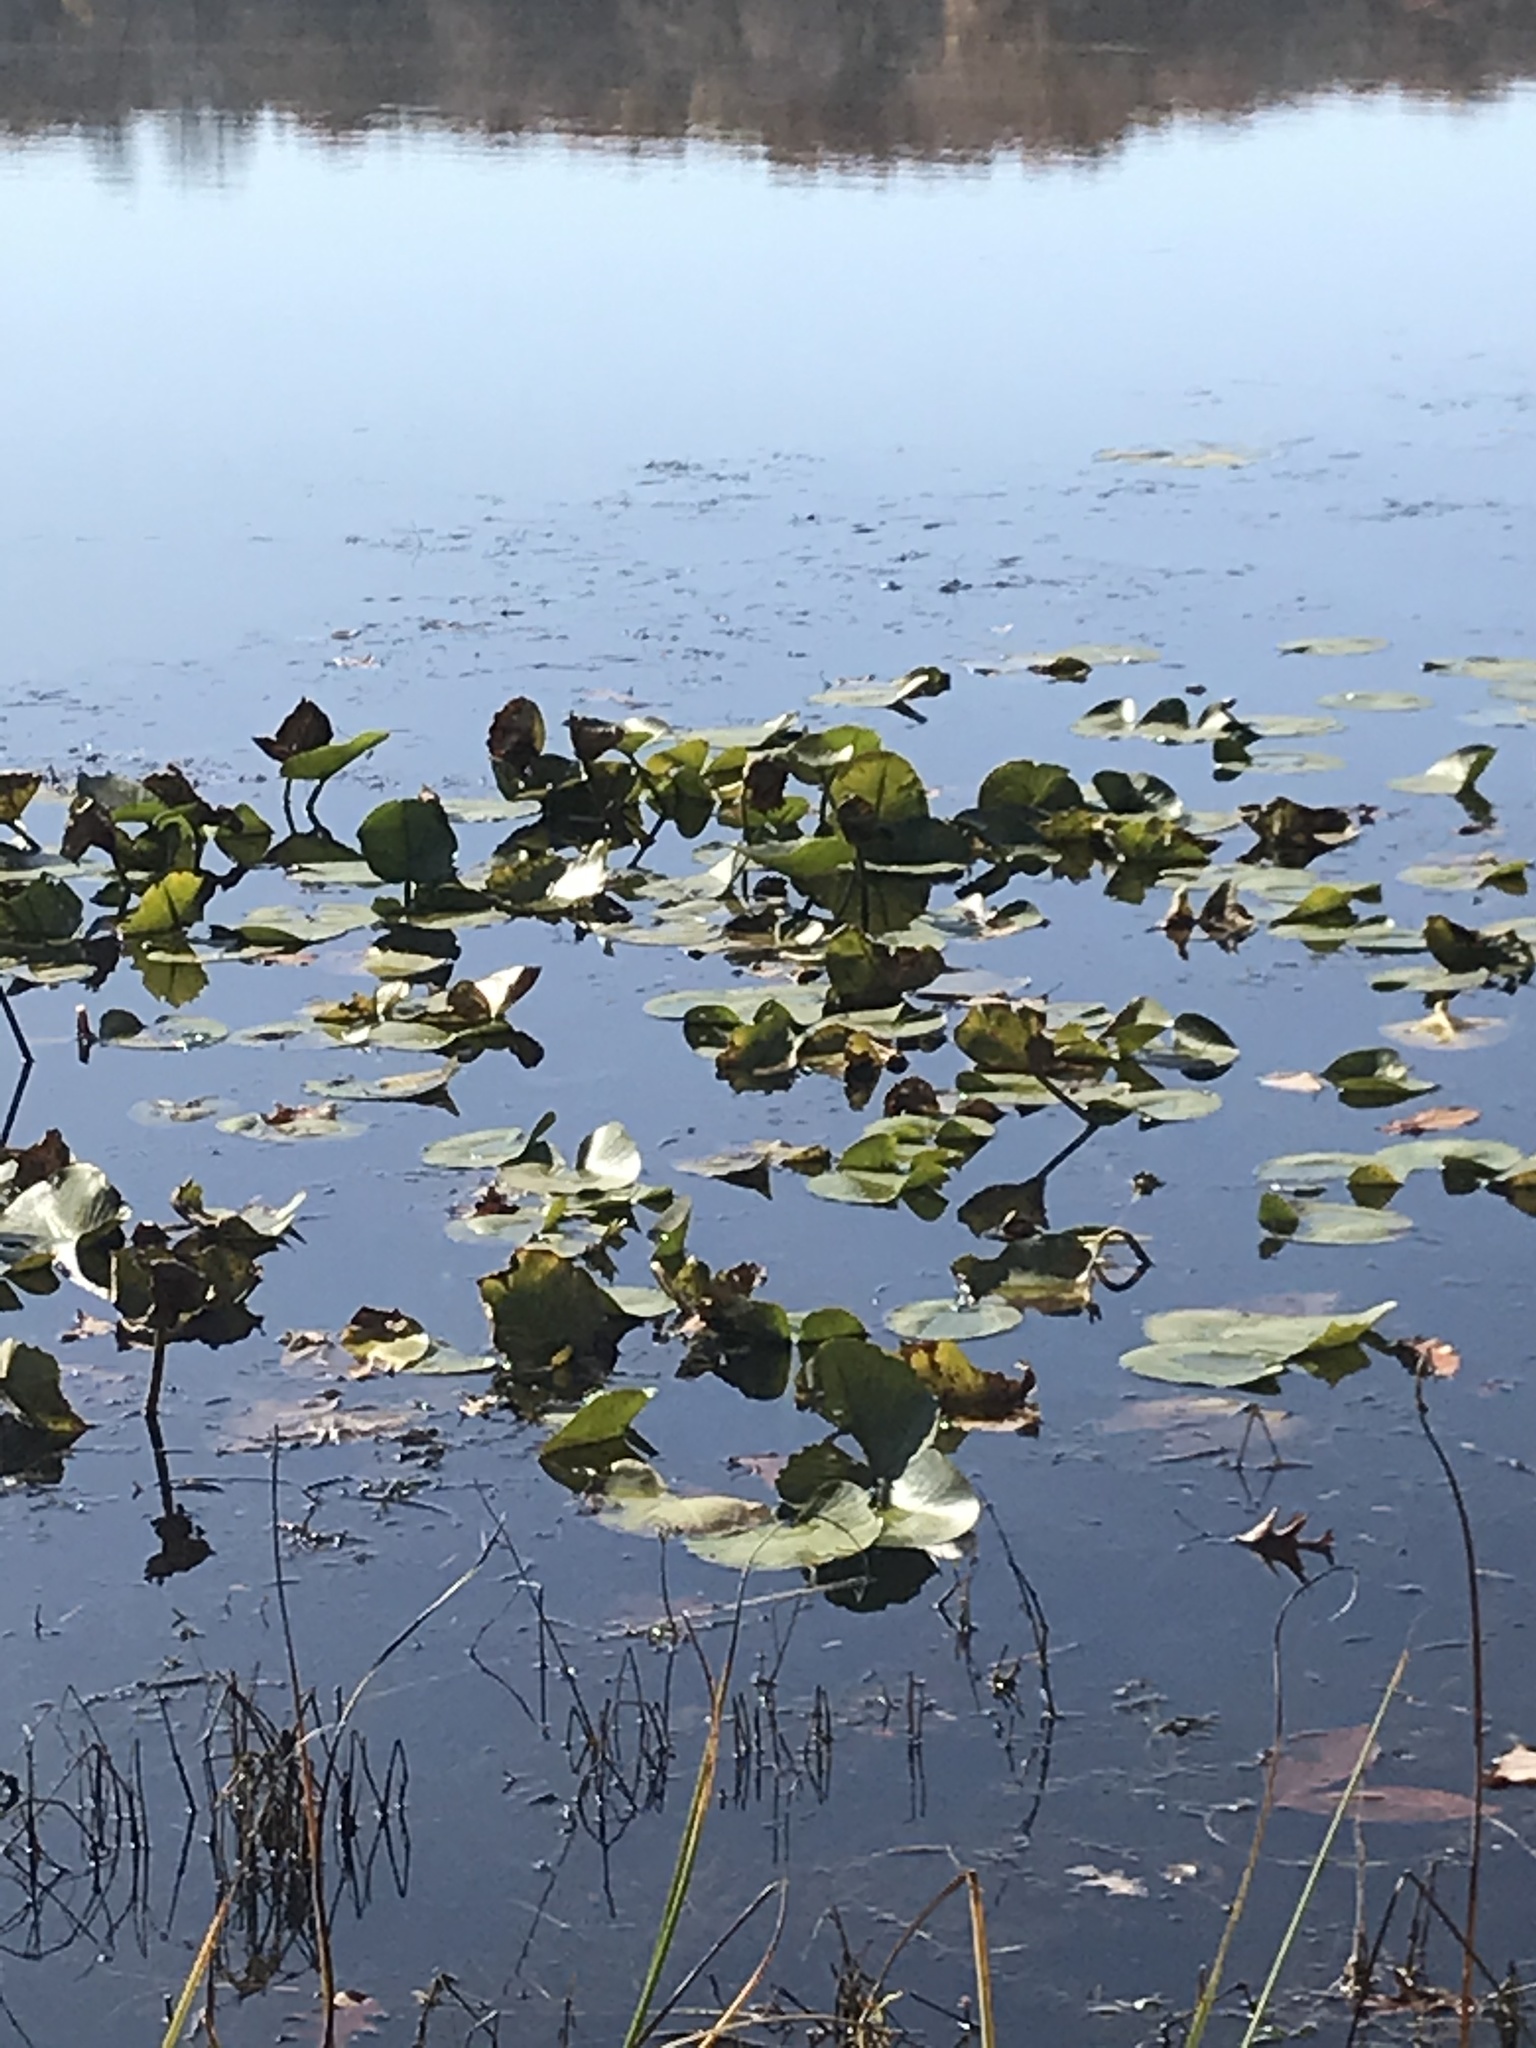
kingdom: Plantae
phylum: Tracheophyta
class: Magnoliopsida
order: Nymphaeales
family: Nymphaeaceae
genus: Nuphar
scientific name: Nuphar advena
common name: Spatter-dock
